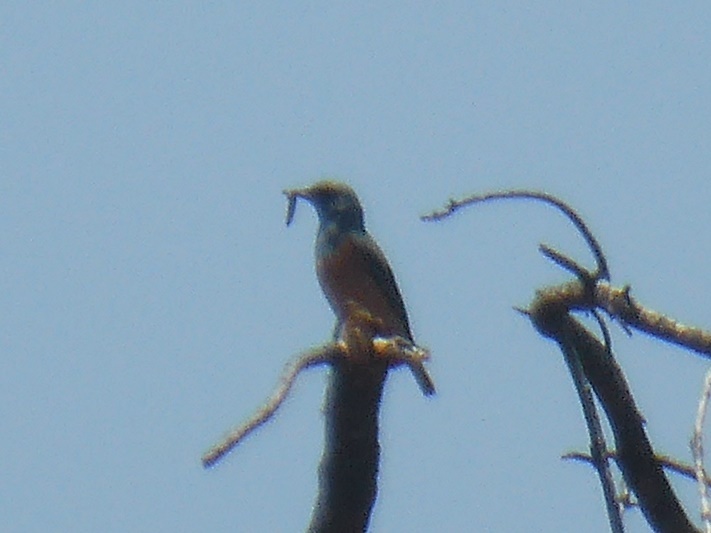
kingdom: Animalia
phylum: Chordata
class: Aves
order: Passeriformes
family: Muscicapidae
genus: Monticola
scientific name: Monticola explorator
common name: Sentinel rock thrush
